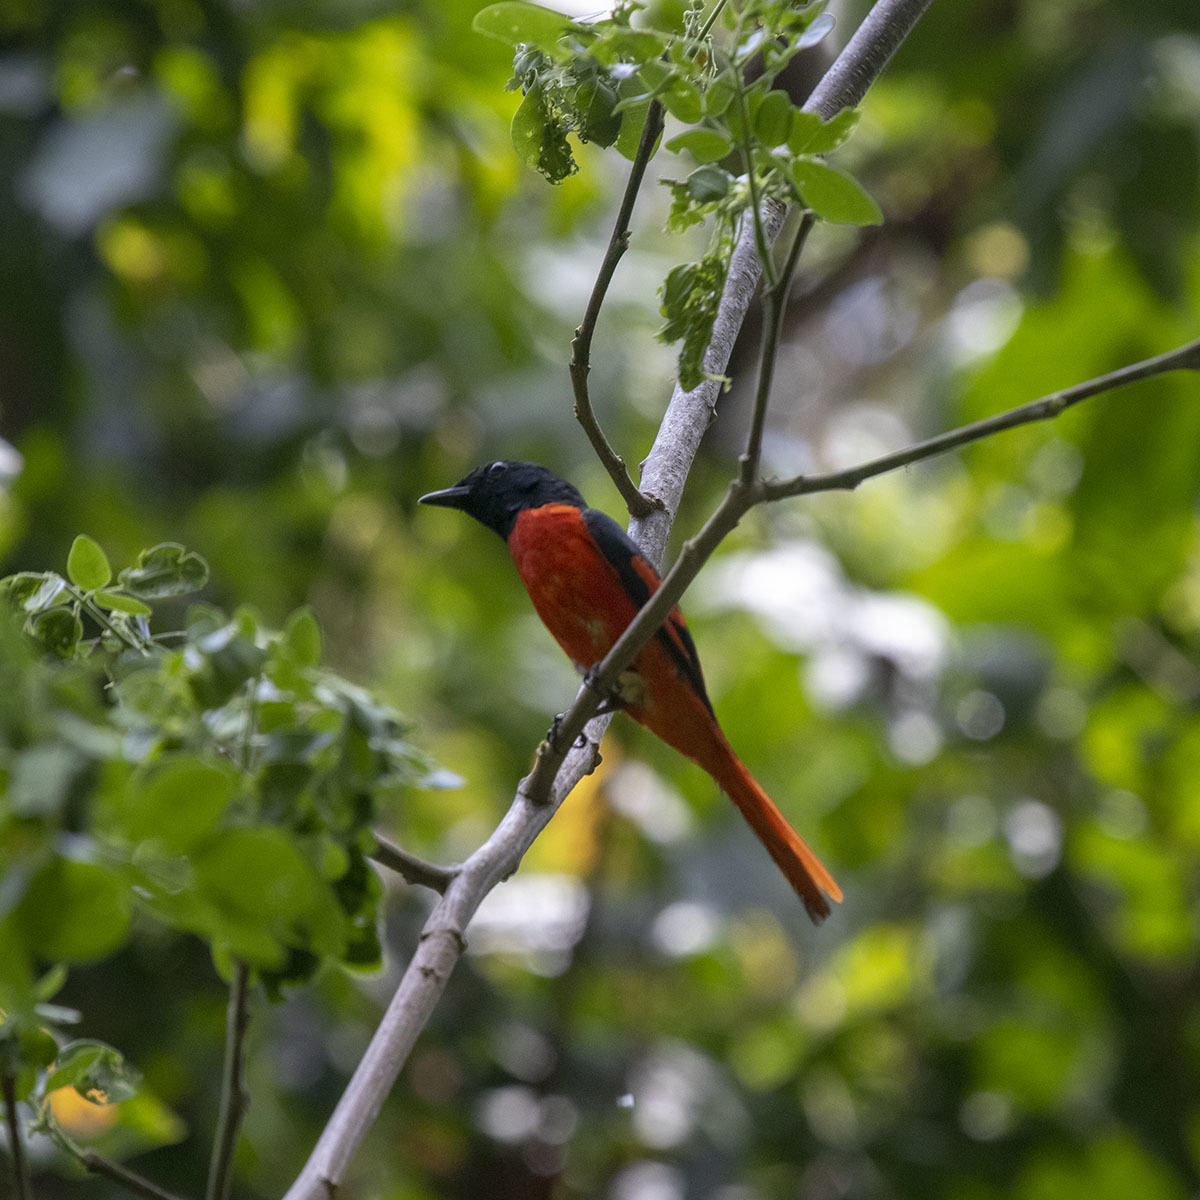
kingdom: Animalia
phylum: Chordata
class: Aves
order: Passeriformes
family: Campephagidae
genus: Pericrocotus
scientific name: Pericrocotus speciosus
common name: Scarlet minivet
